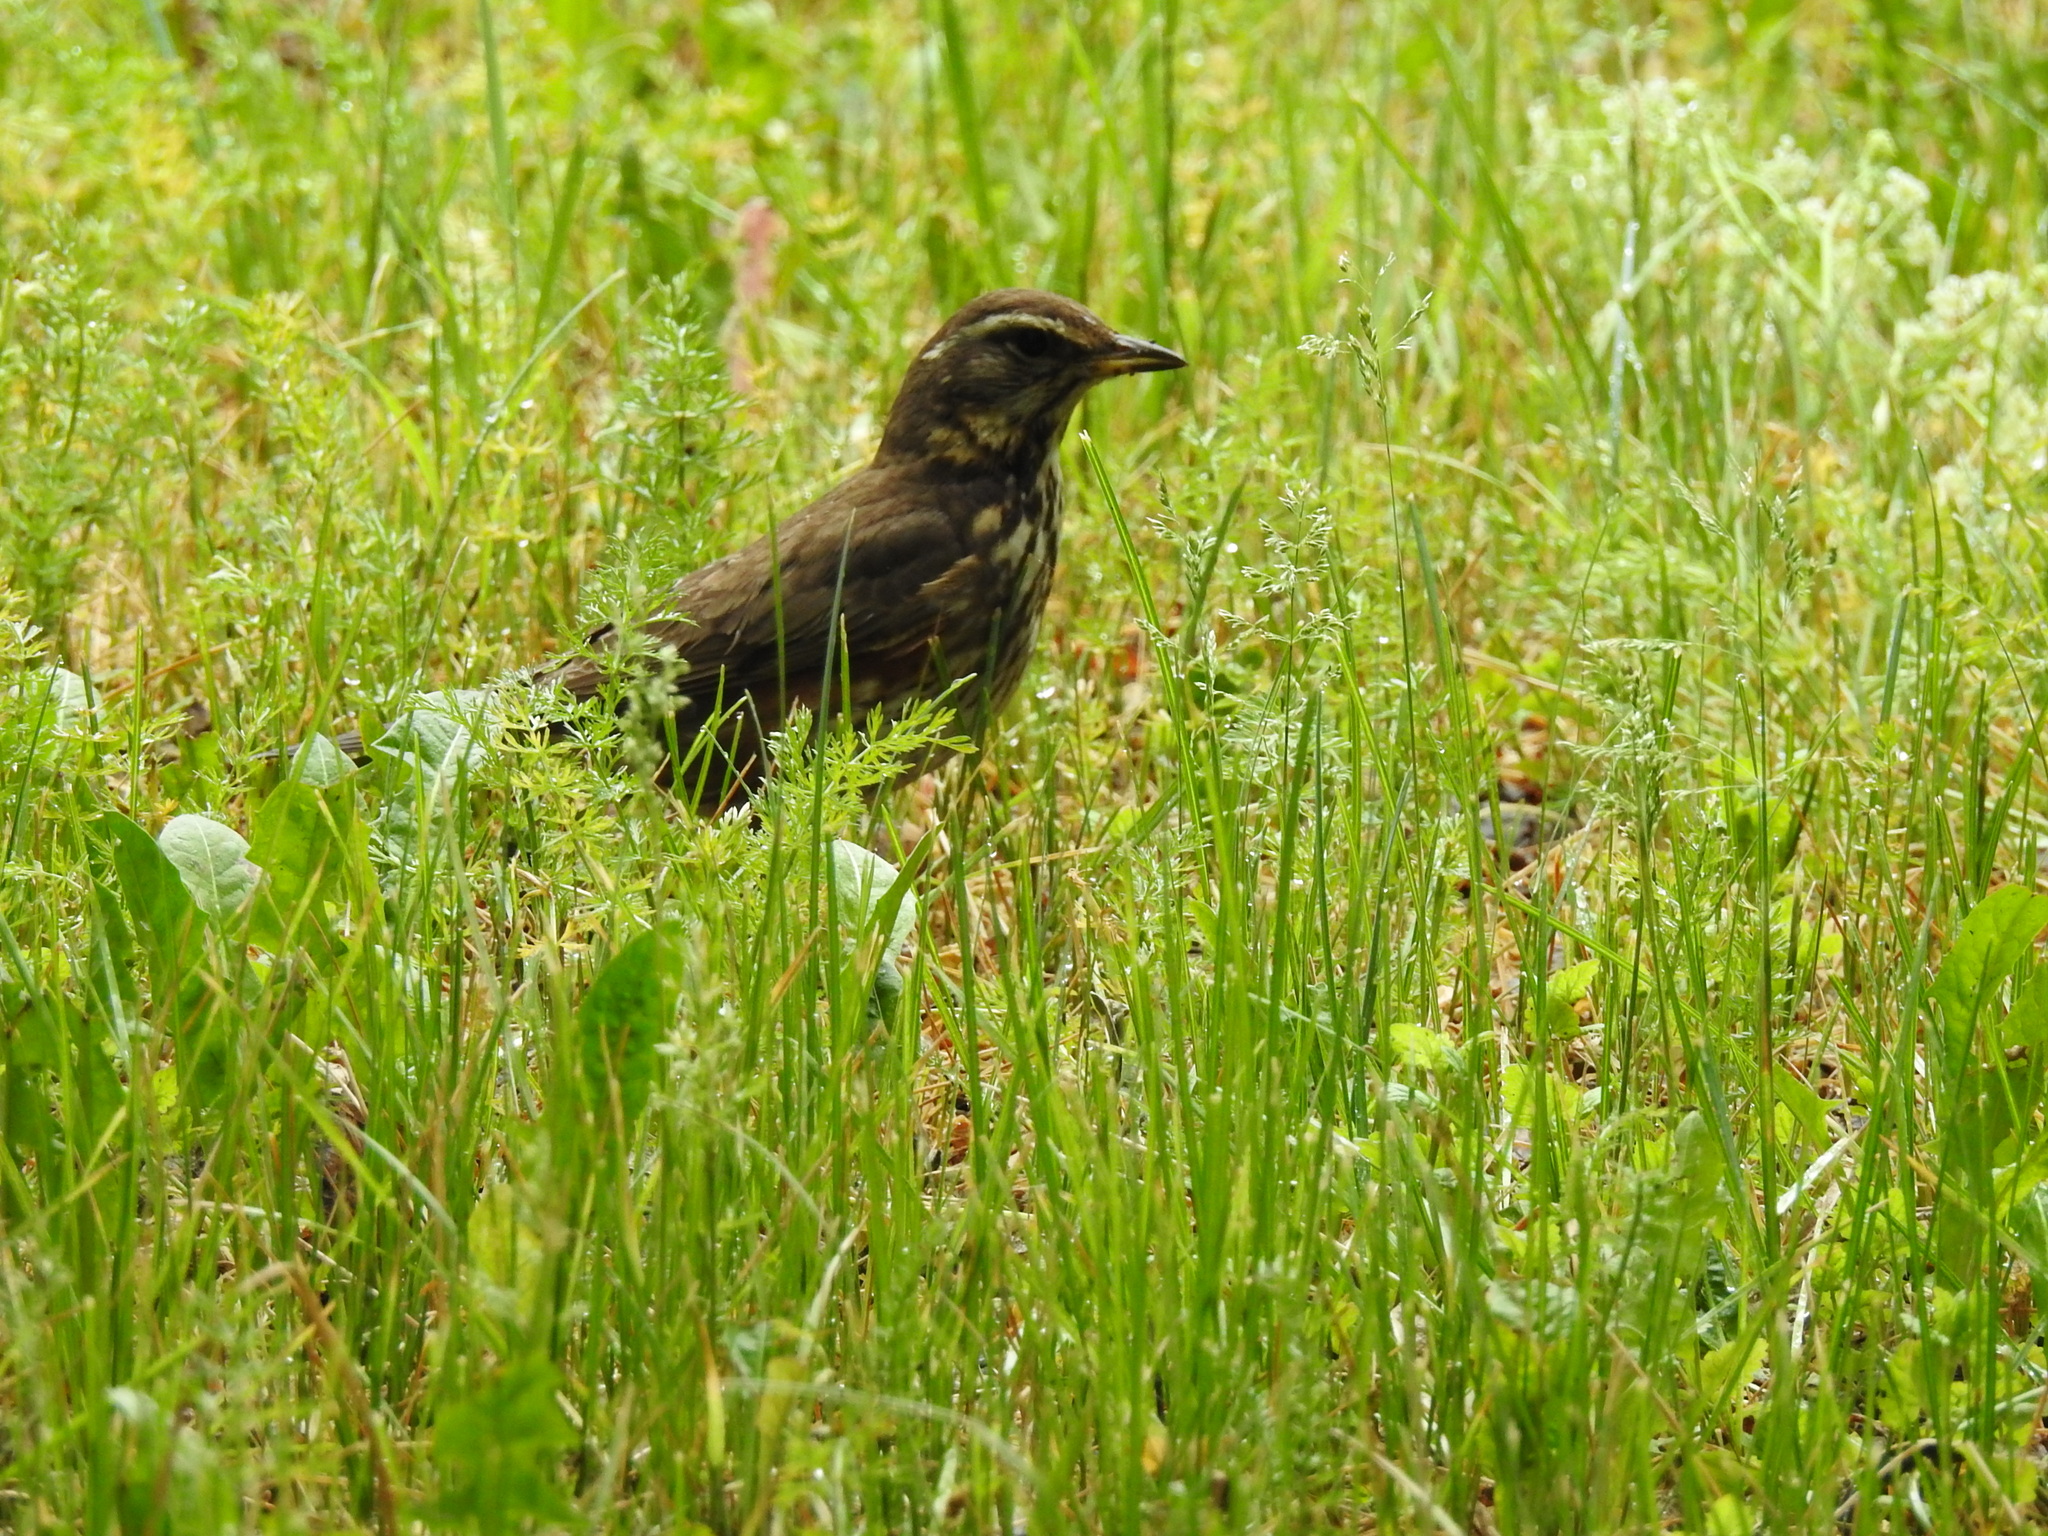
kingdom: Animalia
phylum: Chordata
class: Aves
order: Passeriformes
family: Turdidae
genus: Turdus
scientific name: Turdus iliacus
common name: Redwing
